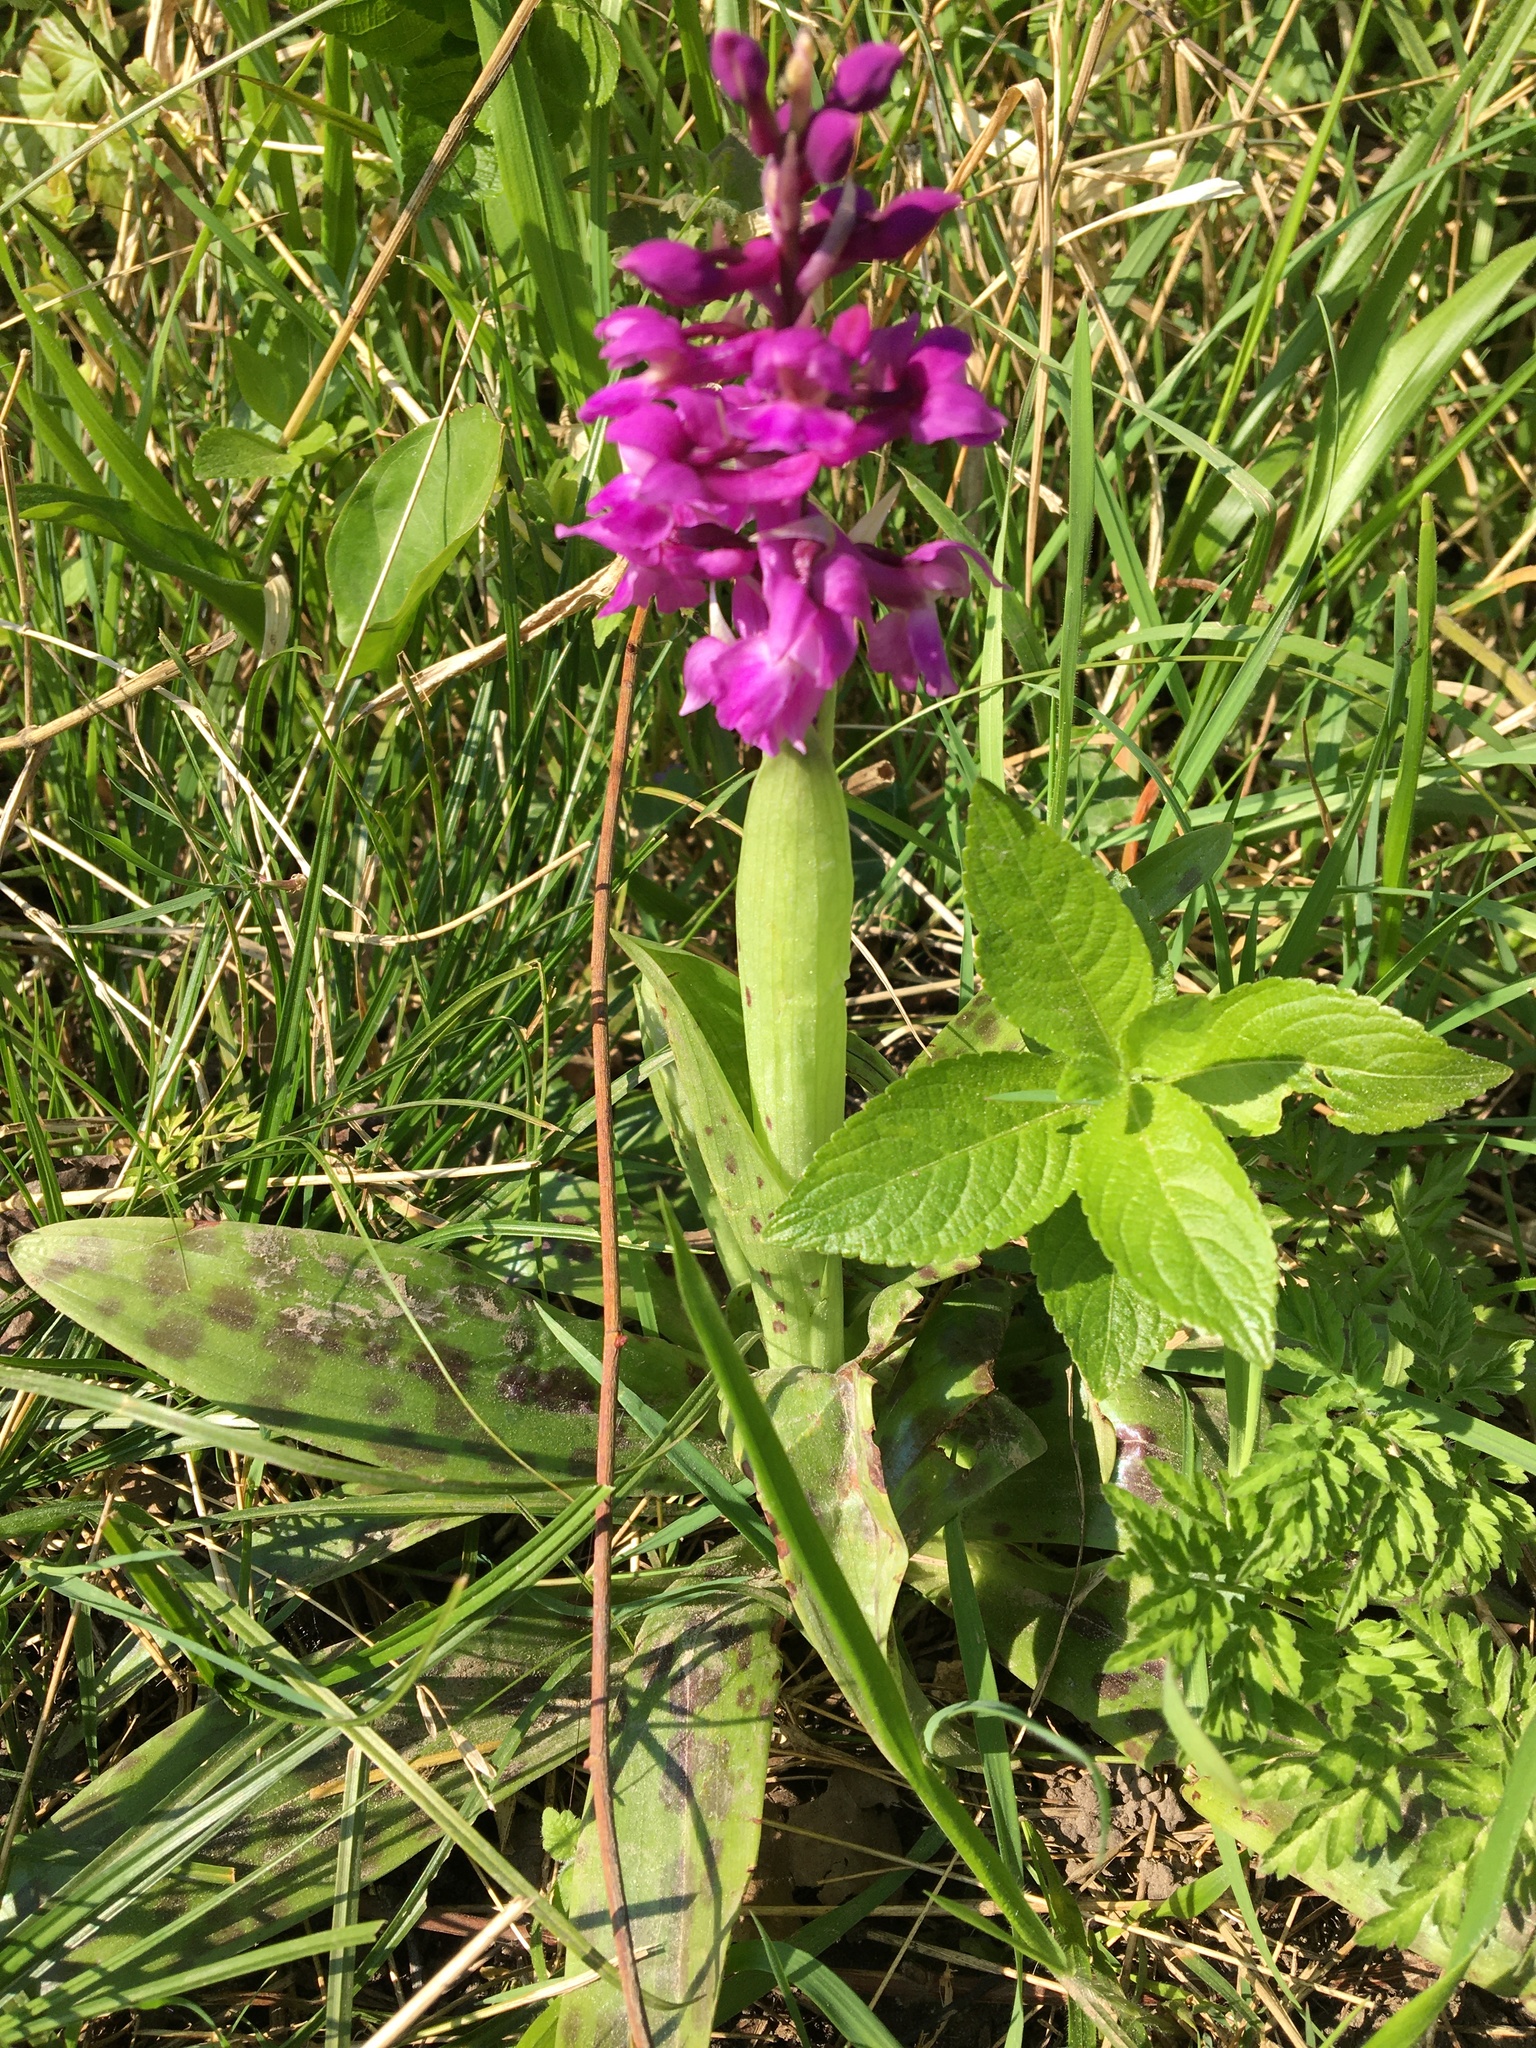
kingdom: Plantae
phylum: Tracheophyta
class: Liliopsida
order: Asparagales
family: Orchidaceae
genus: Orchis
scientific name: Orchis mascula
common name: Early-purple orchid
